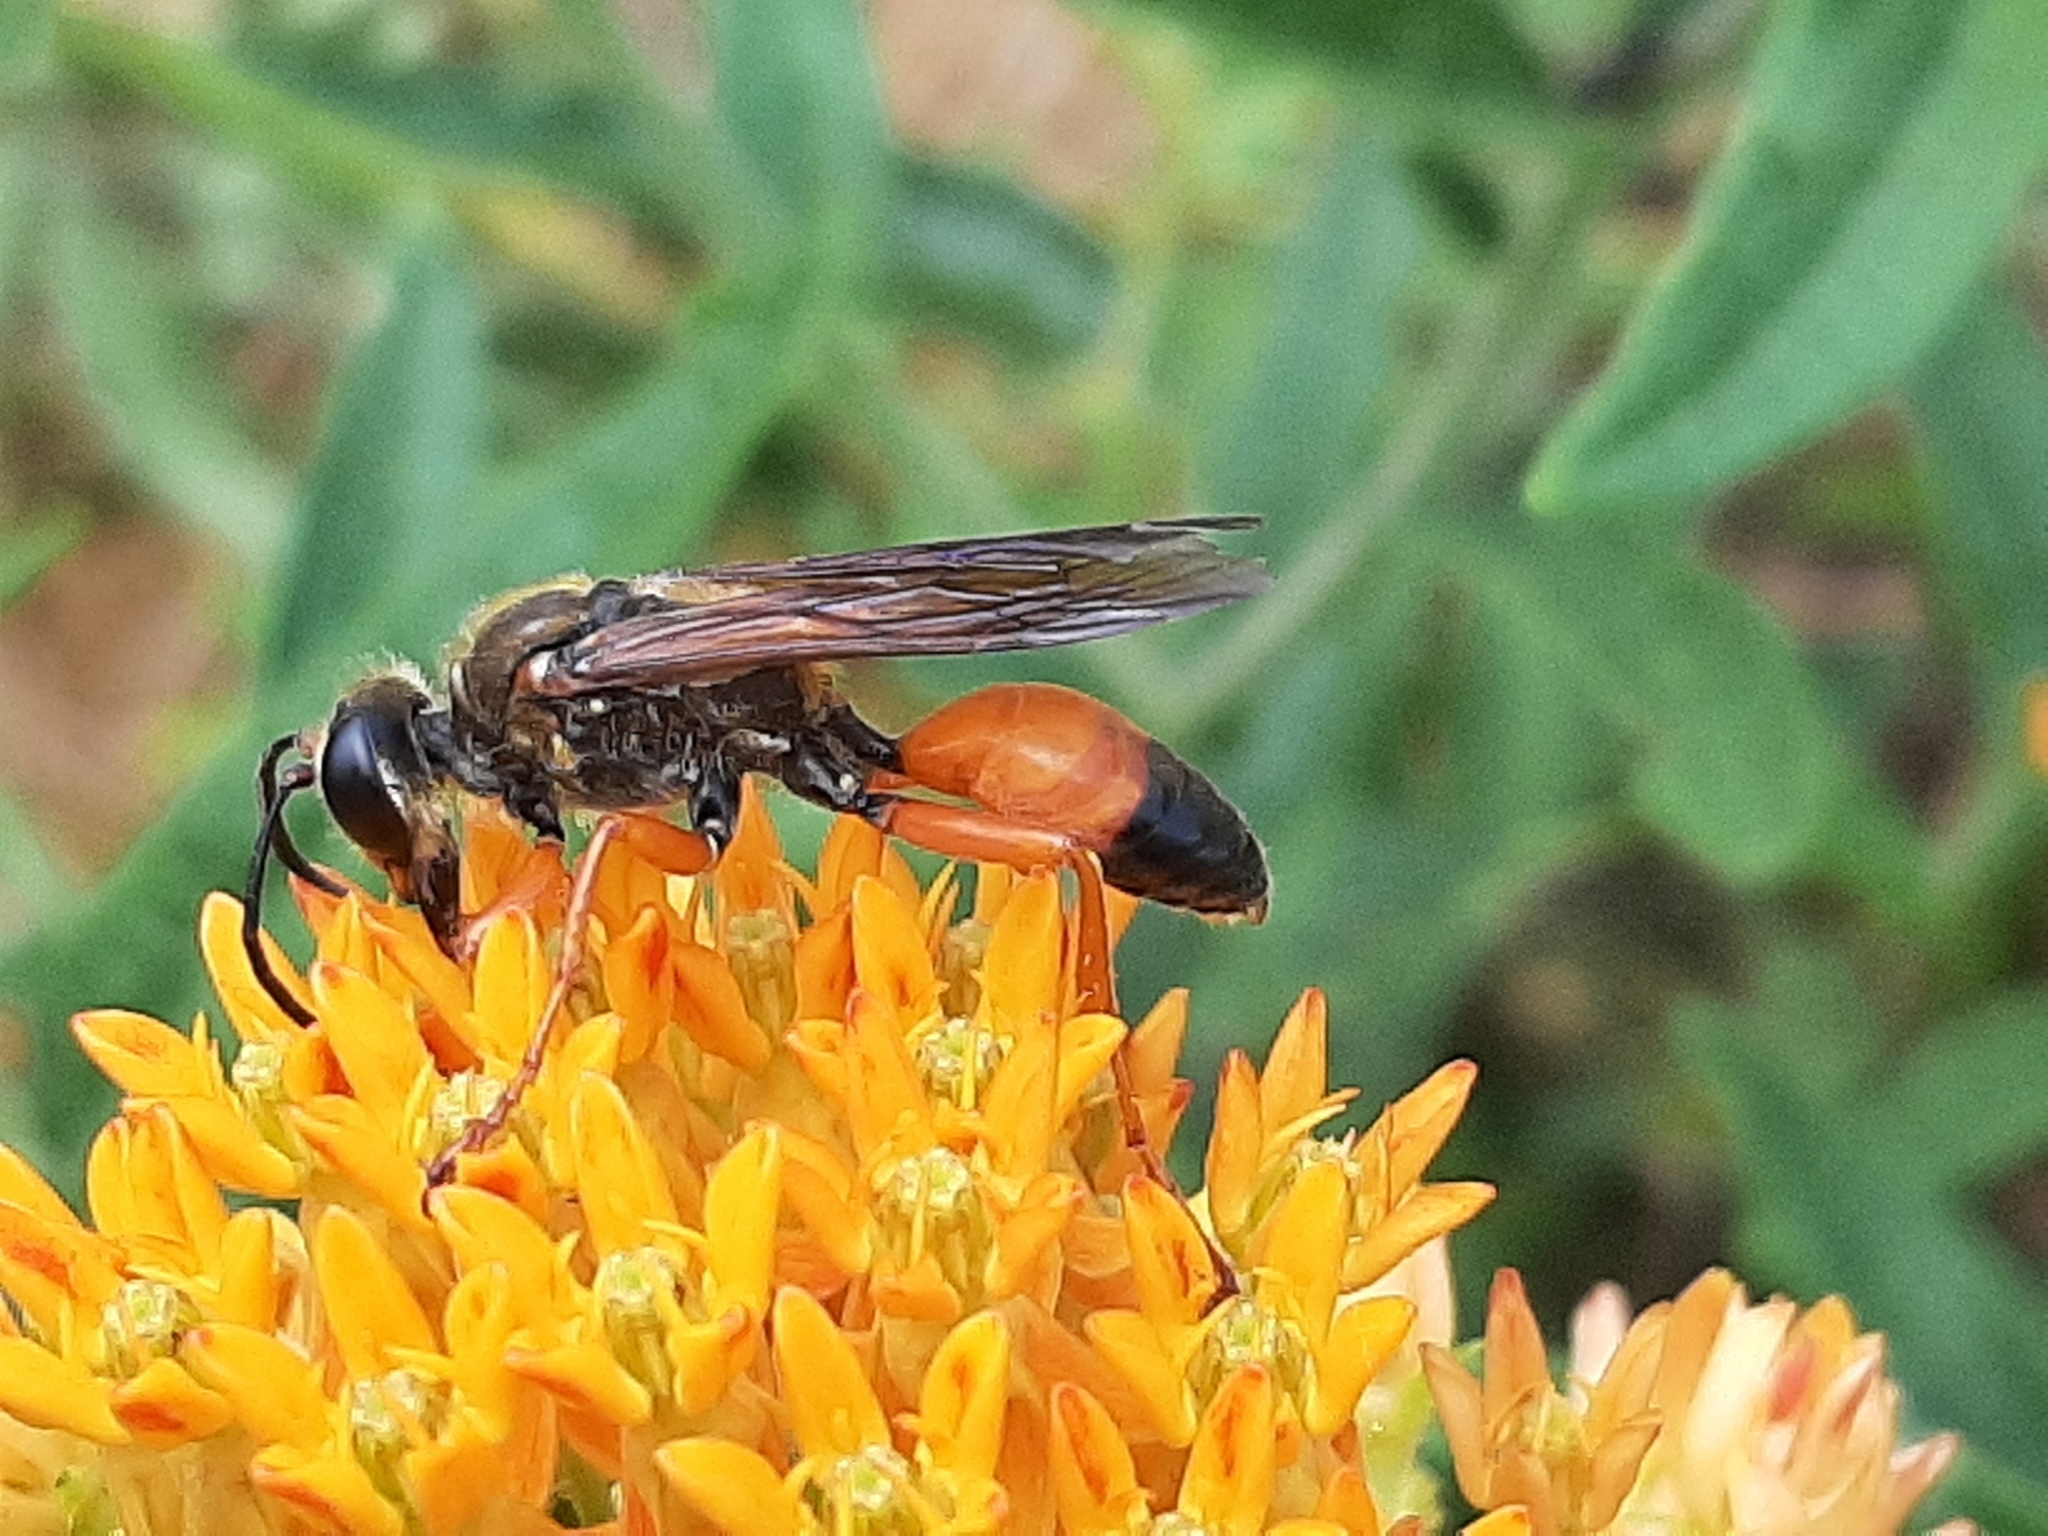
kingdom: Animalia
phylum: Arthropoda
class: Insecta
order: Hymenoptera
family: Sphecidae
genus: Sphex
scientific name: Sphex ichneumoneus
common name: Great golden digger wasp
